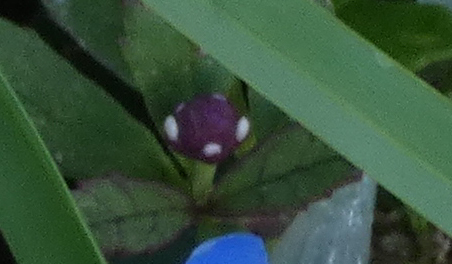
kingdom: Plantae
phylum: Tracheophyta
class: Magnoliopsida
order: Lamiales
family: Verbenaceae
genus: Phyla
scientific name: Phyla nodiflora
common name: Frogfruit
